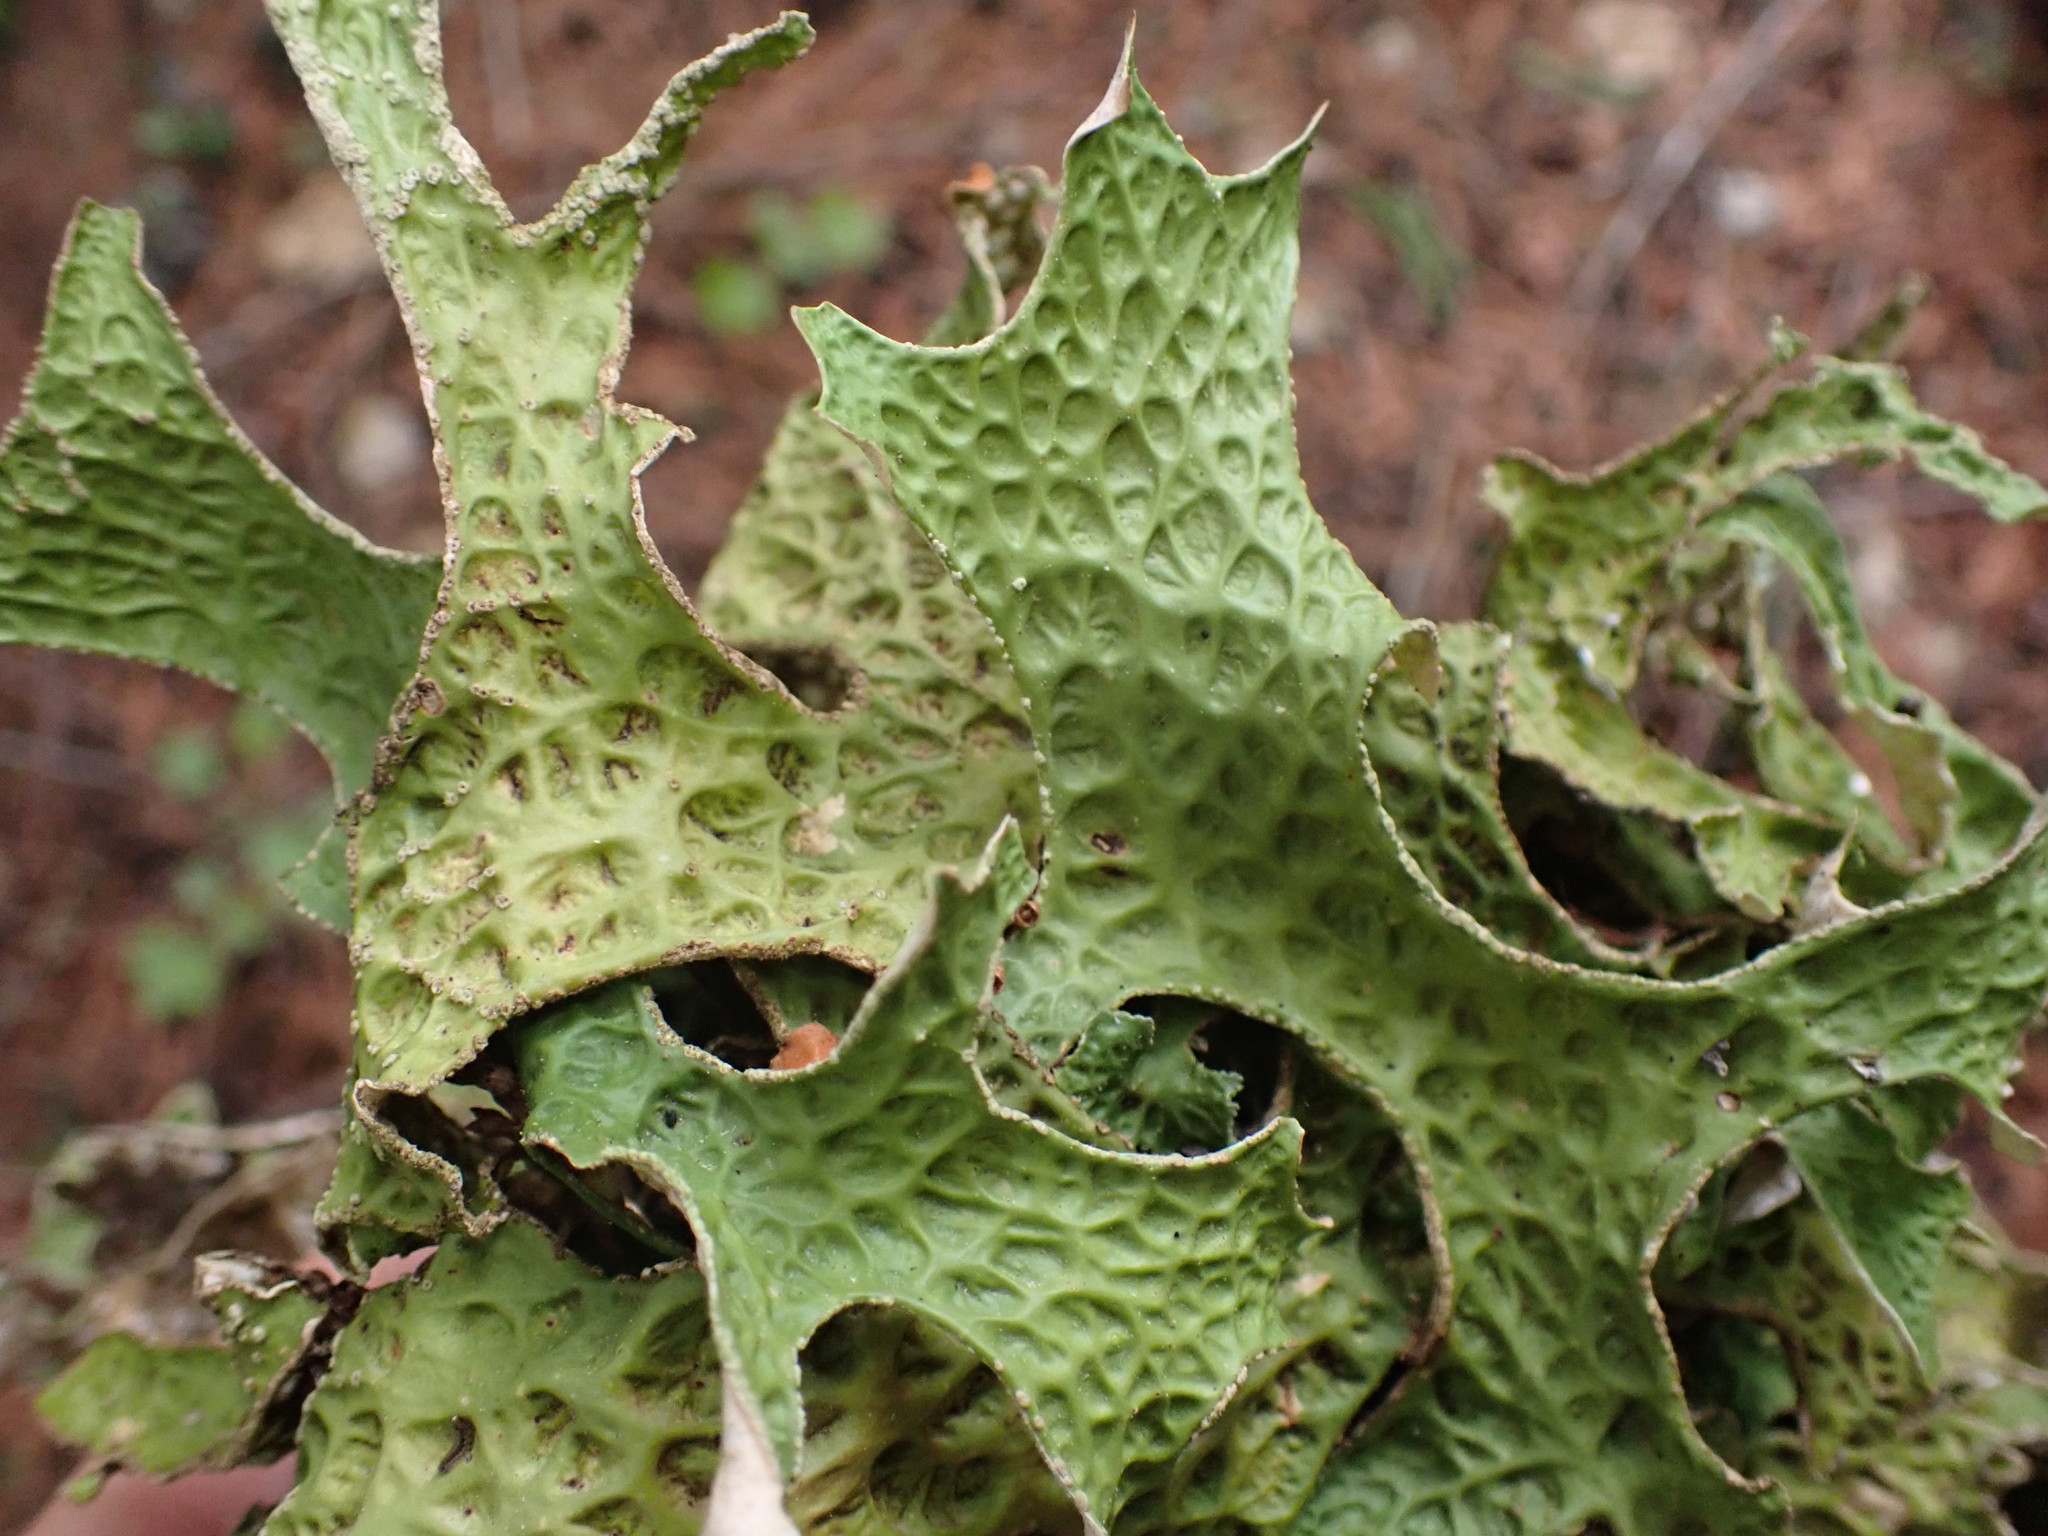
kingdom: Fungi
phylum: Ascomycota
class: Lecanoromycetes
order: Peltigerales
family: Lobariaceae
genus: Lobaria
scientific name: Lobaria pulmonaria
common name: Lungwort
